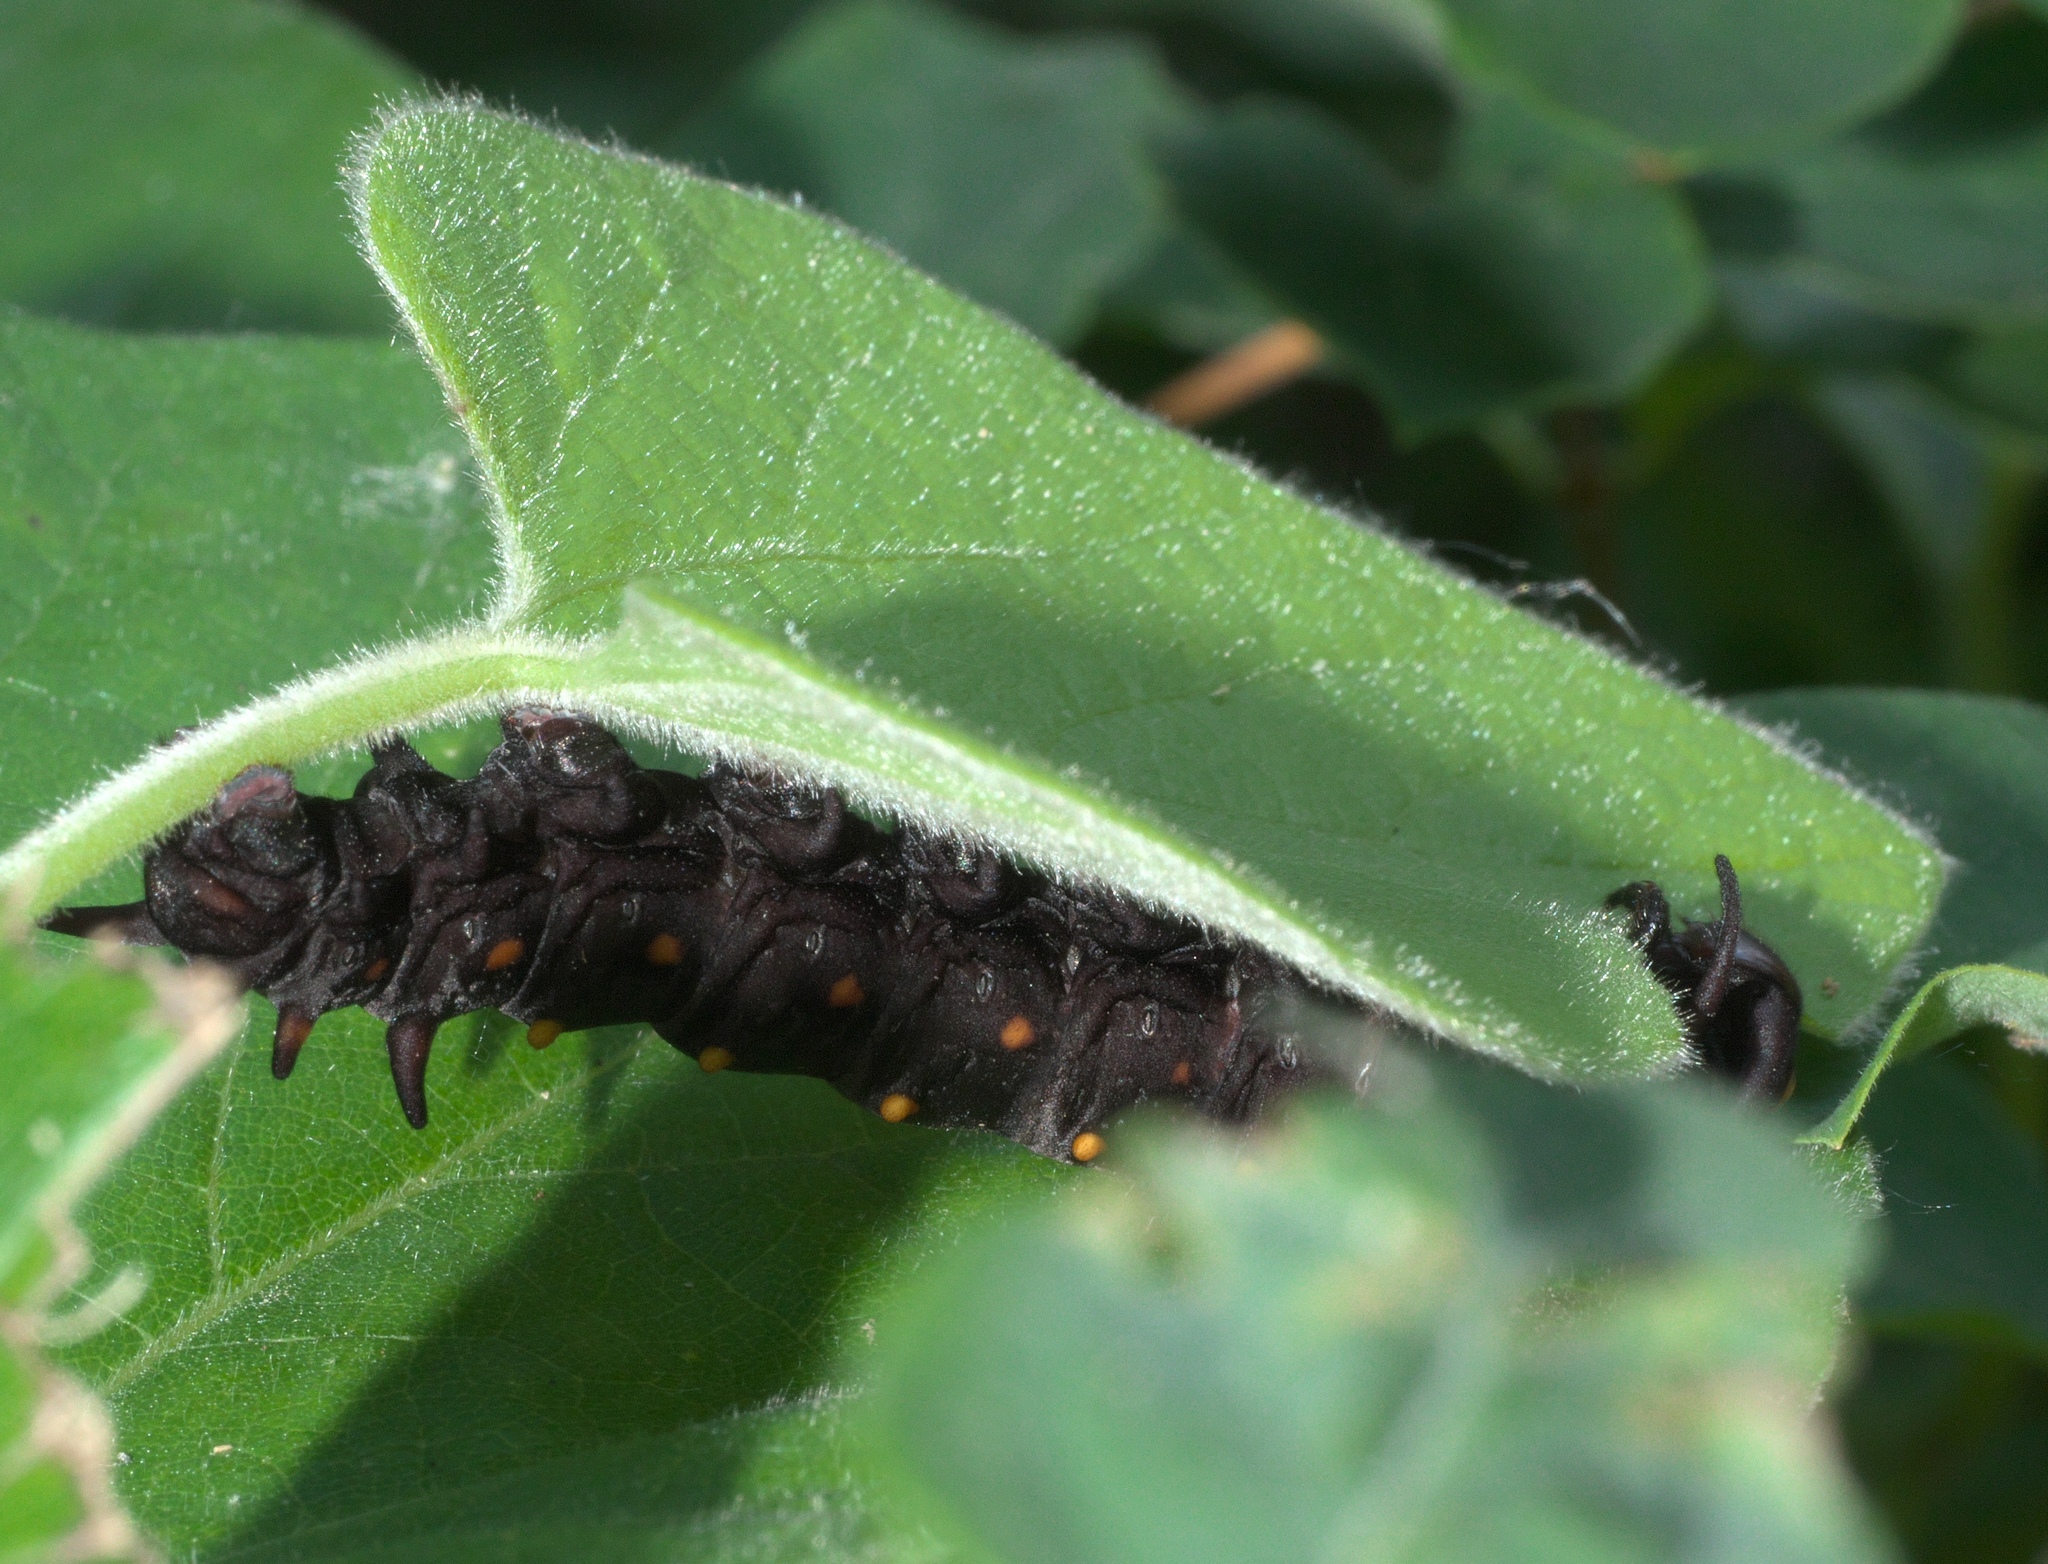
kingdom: Animalia
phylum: Arthropoda
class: Insecta
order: Lepidoptera
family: Papilionidae
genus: Battus
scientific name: Battus philenor
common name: Pipevine swallowtail
